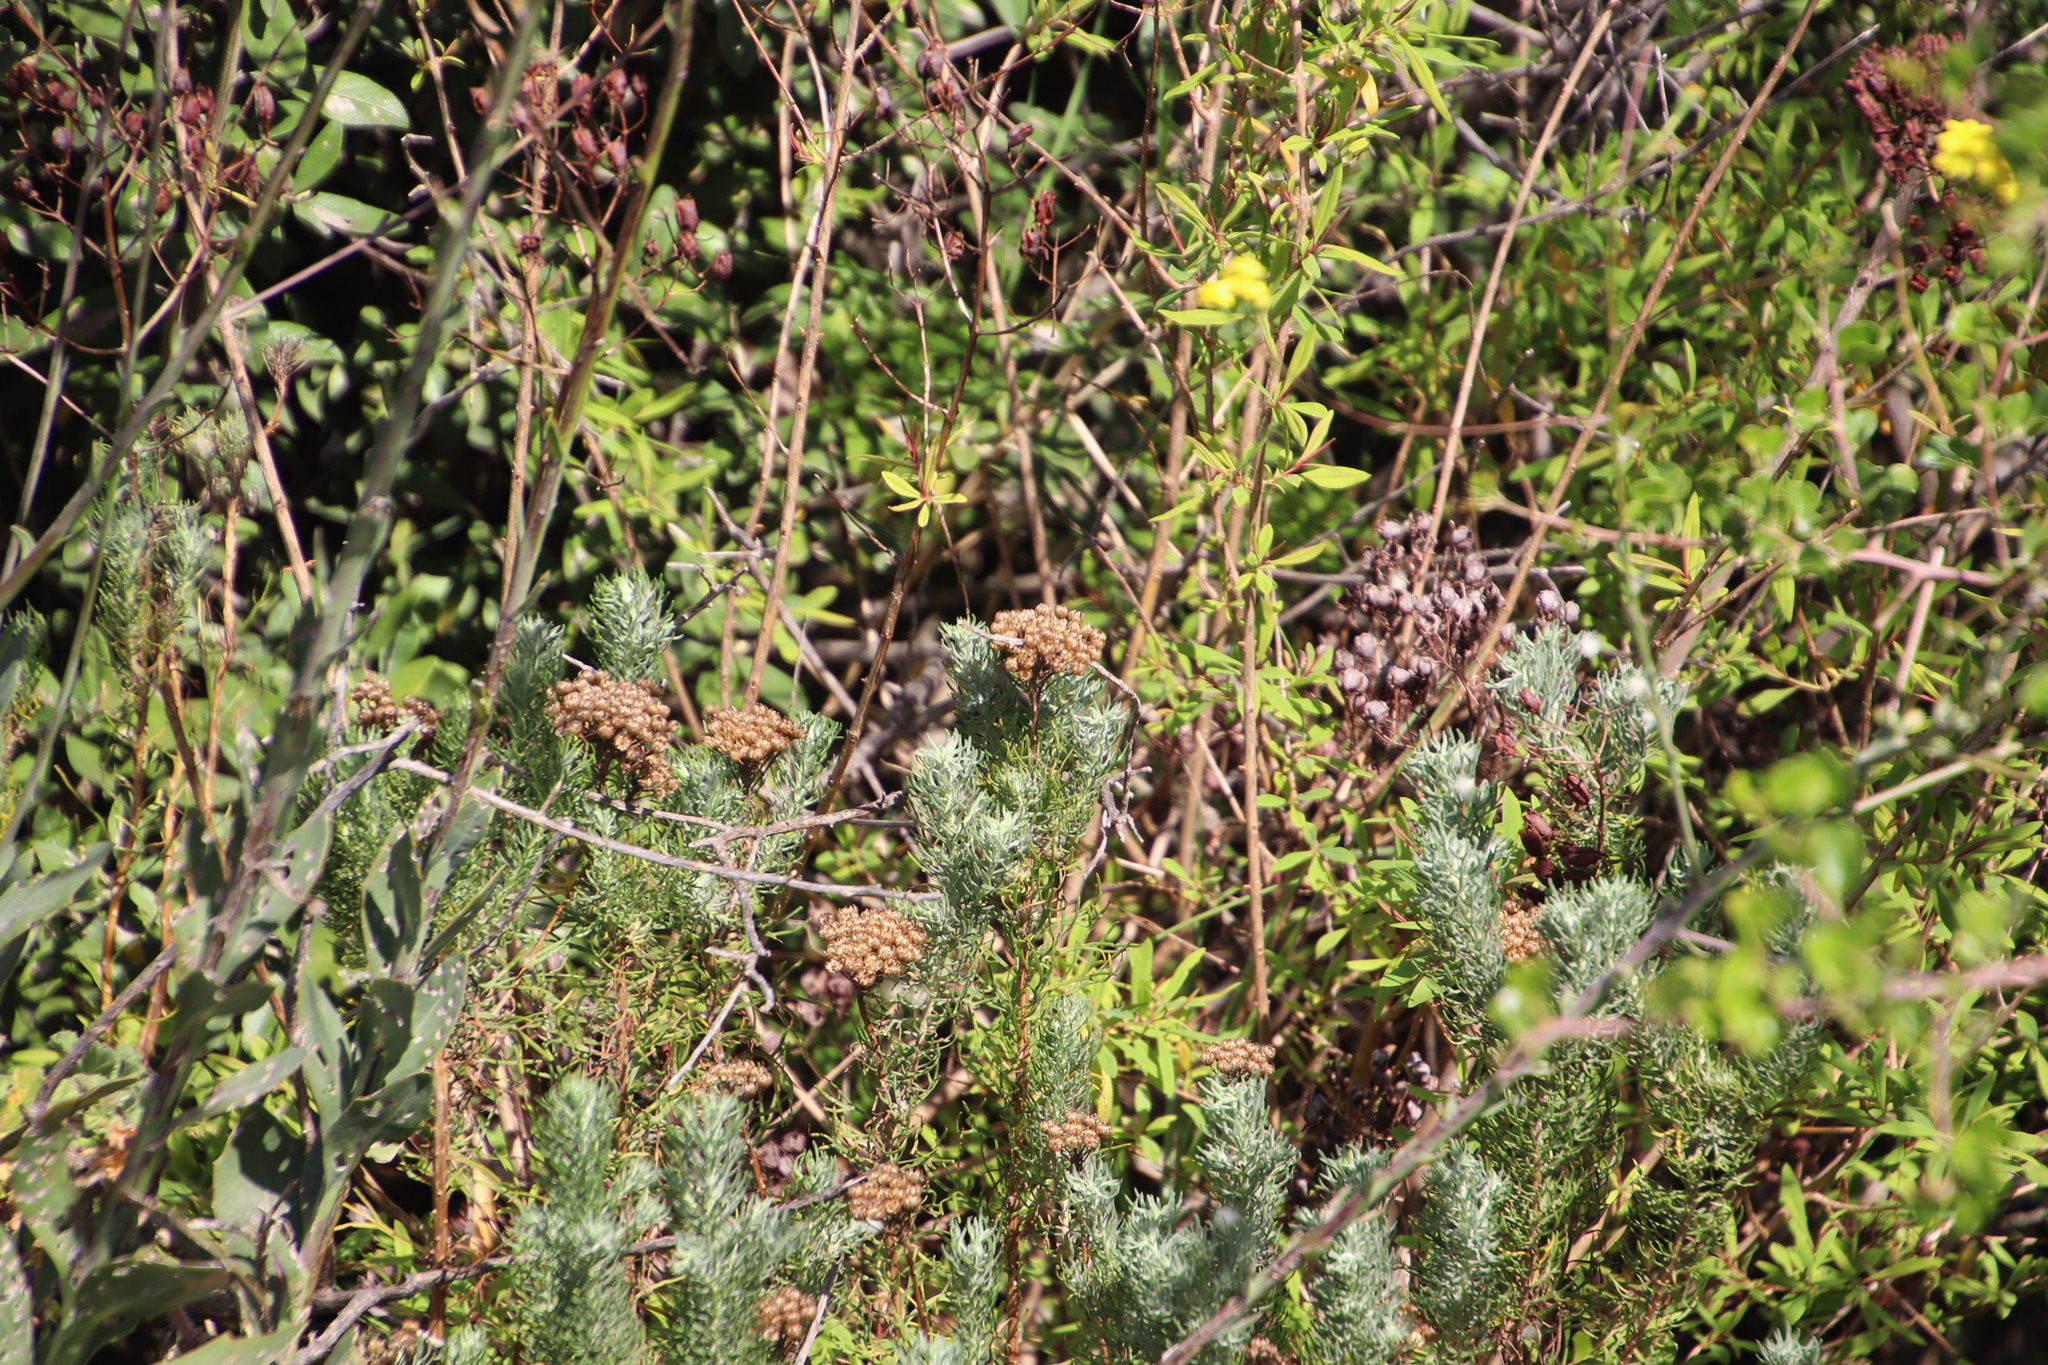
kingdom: Plantae
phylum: Tracheophyta
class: Magnoliopsida
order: Asterales
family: Asteraceae
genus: Athanasia
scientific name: Athanasia crithmifolia
